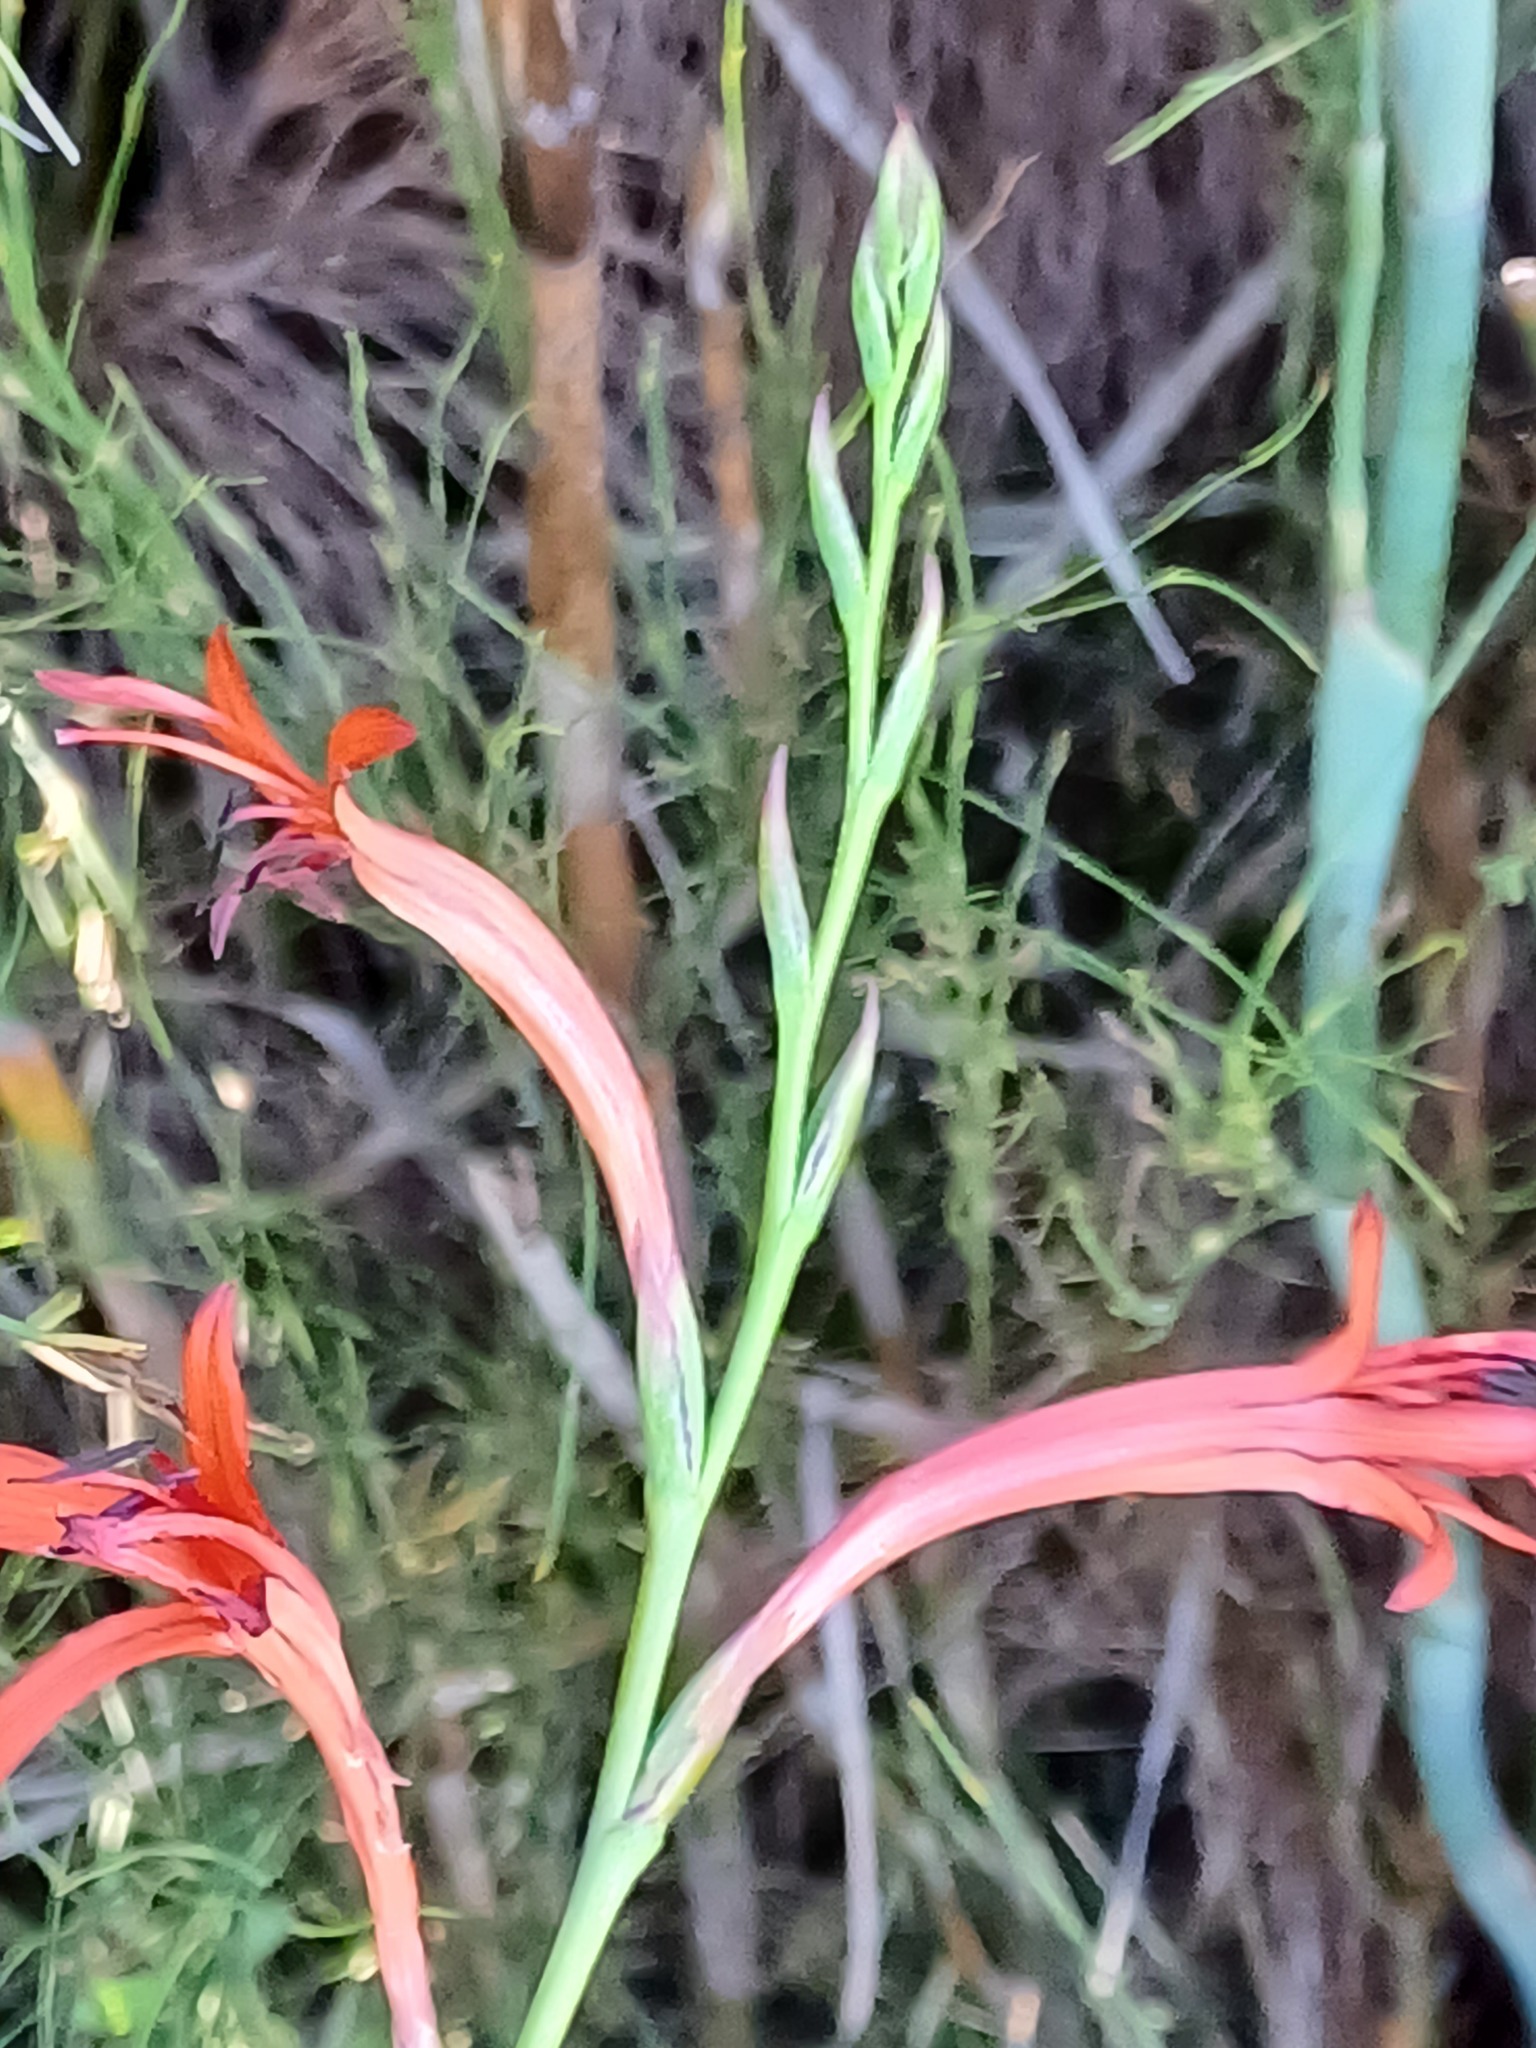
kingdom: Plantae
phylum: Tracheophyta
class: Liliopsida
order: Asparagales
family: Iridaceae
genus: Watsonia
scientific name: Watsonia angusta
